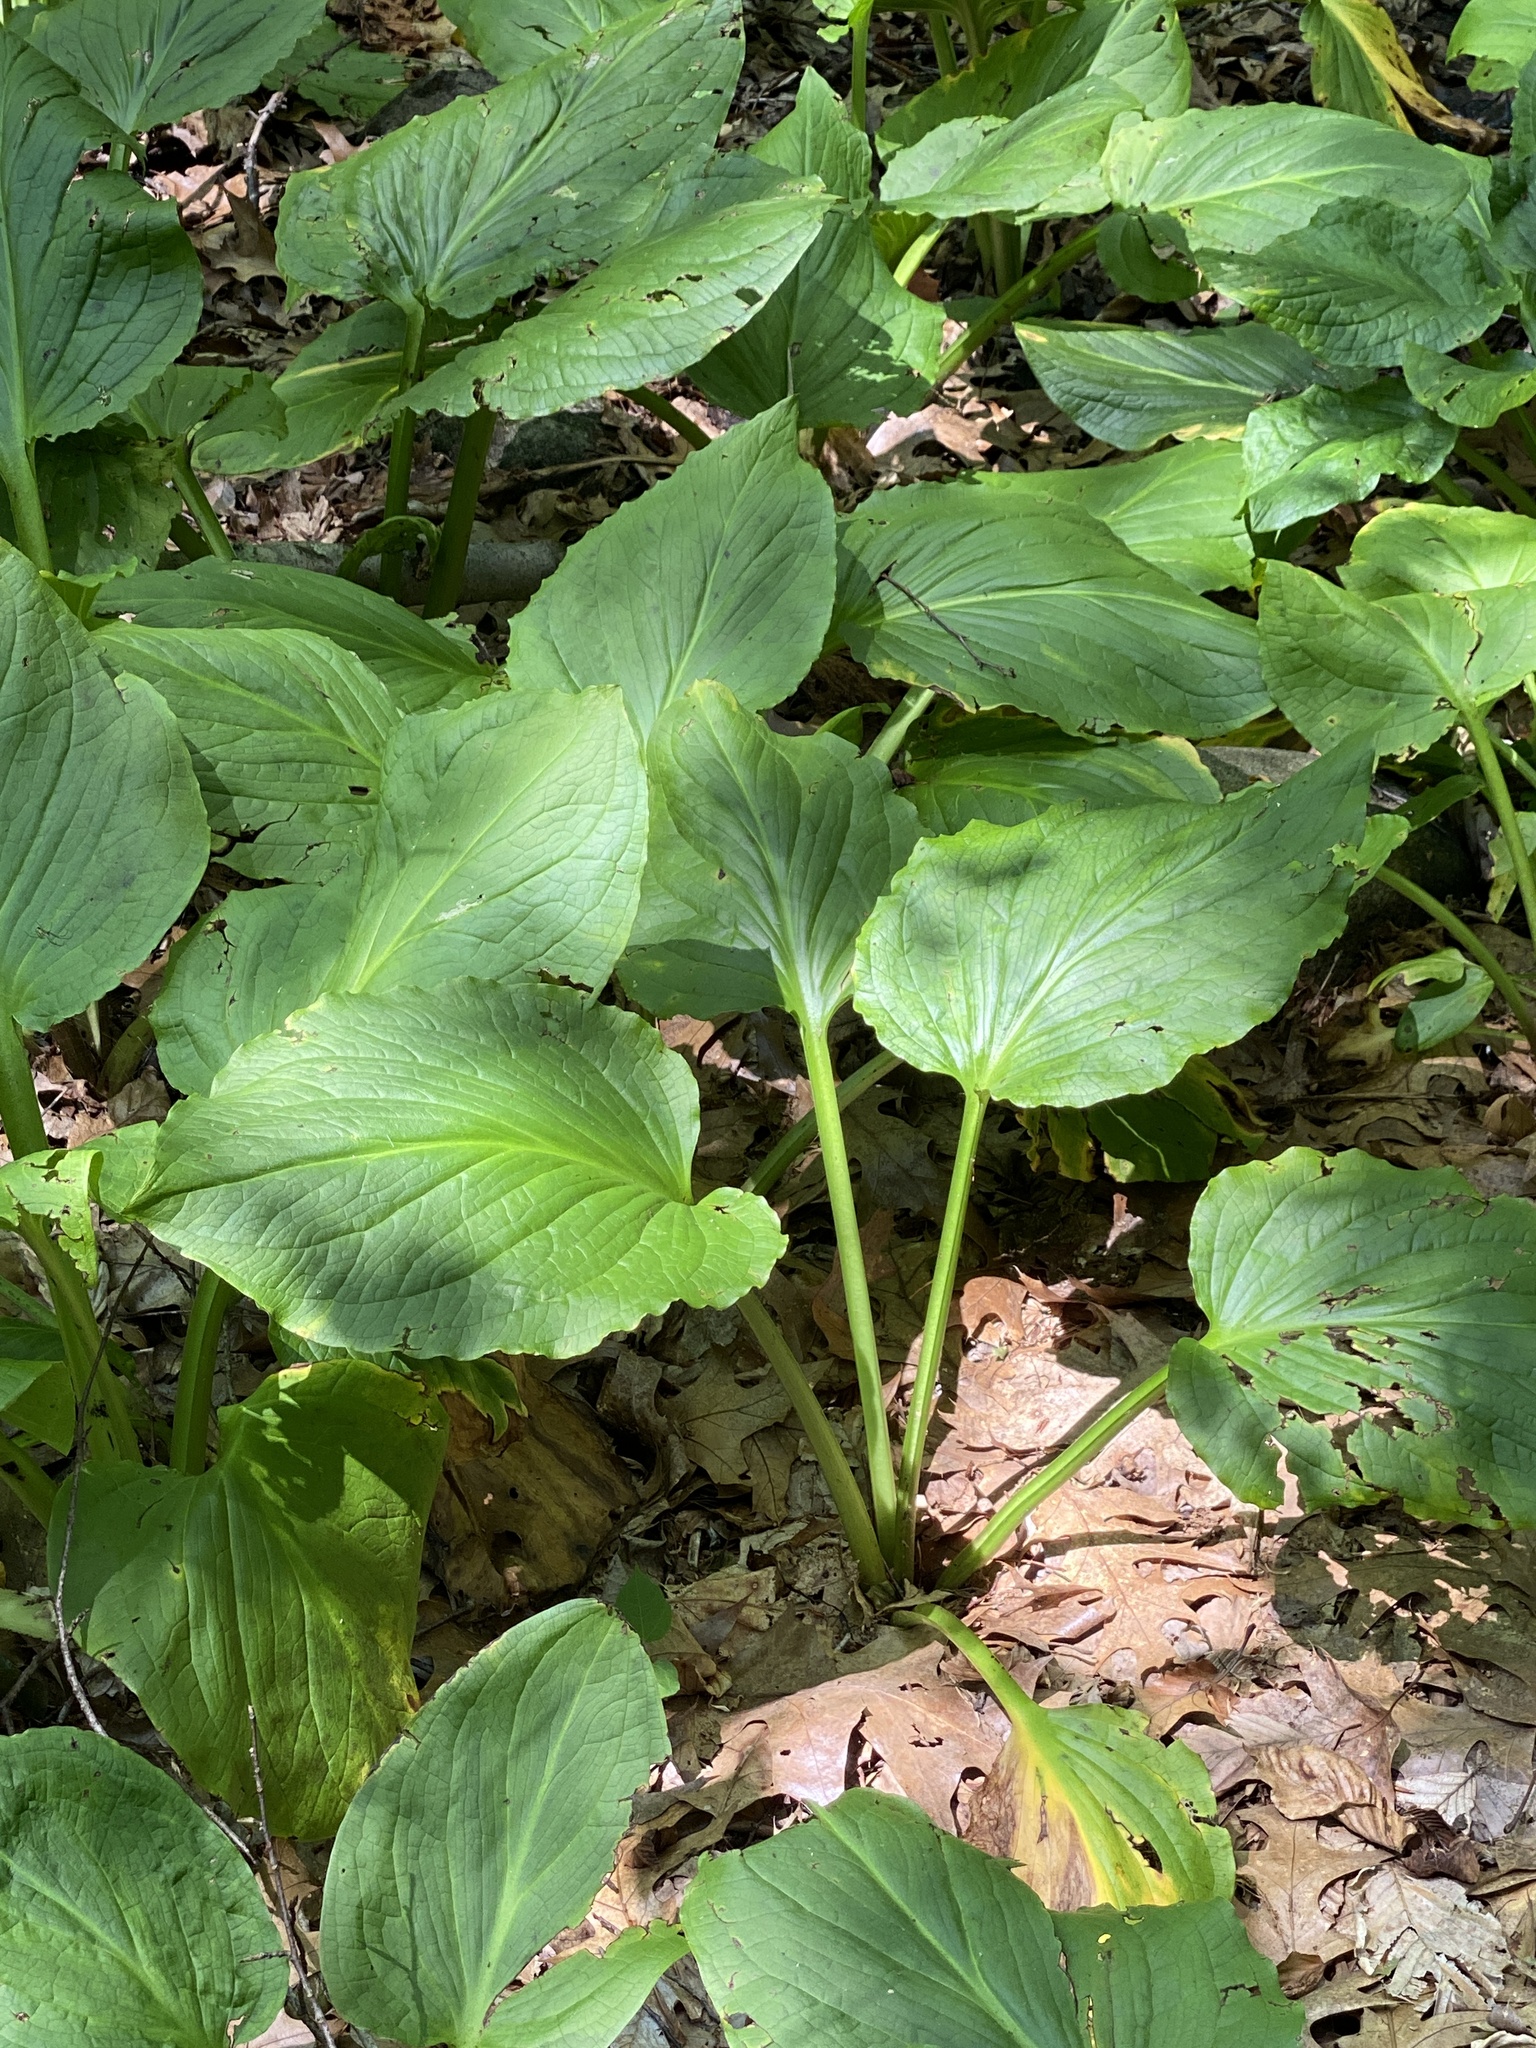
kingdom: Plantae
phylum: Tracheophyta
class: Liliopsida
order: Alismatales
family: Araceae
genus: Symplocarpus
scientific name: Symplocarpus foetidus
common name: Eastern skunk cabbage
